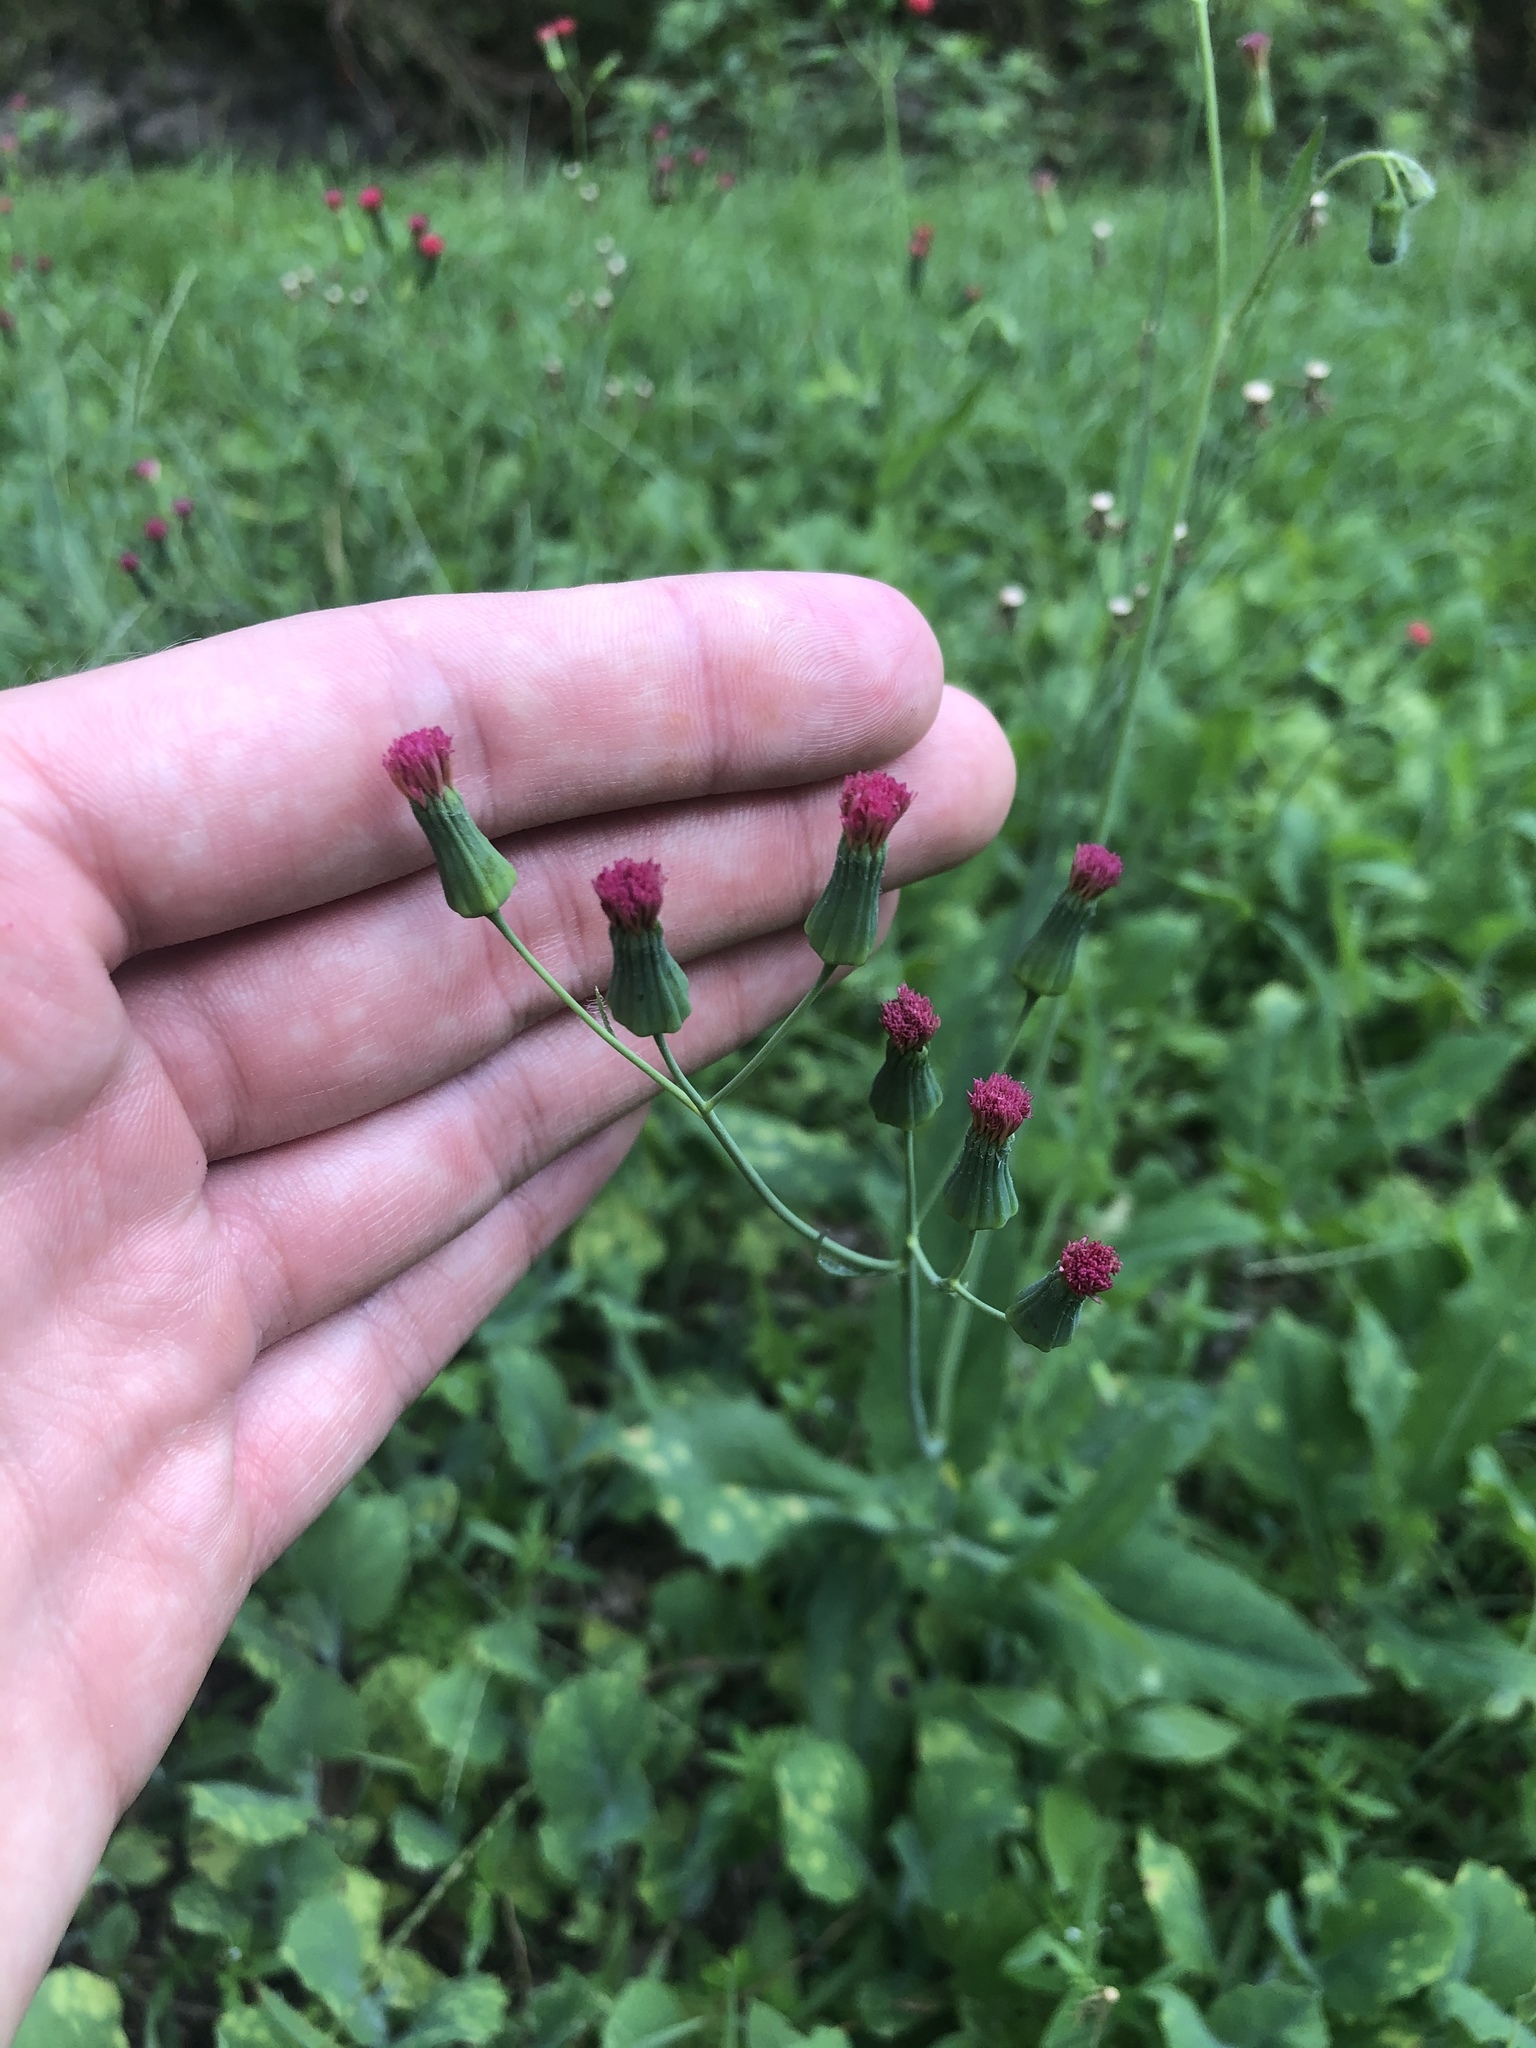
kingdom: Plantae
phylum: Tracheophyta
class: Magnoliopsida
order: Asterales
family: Asteraceae
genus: Emilia
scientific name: Emilia fosbergii
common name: Florida tasselflower
